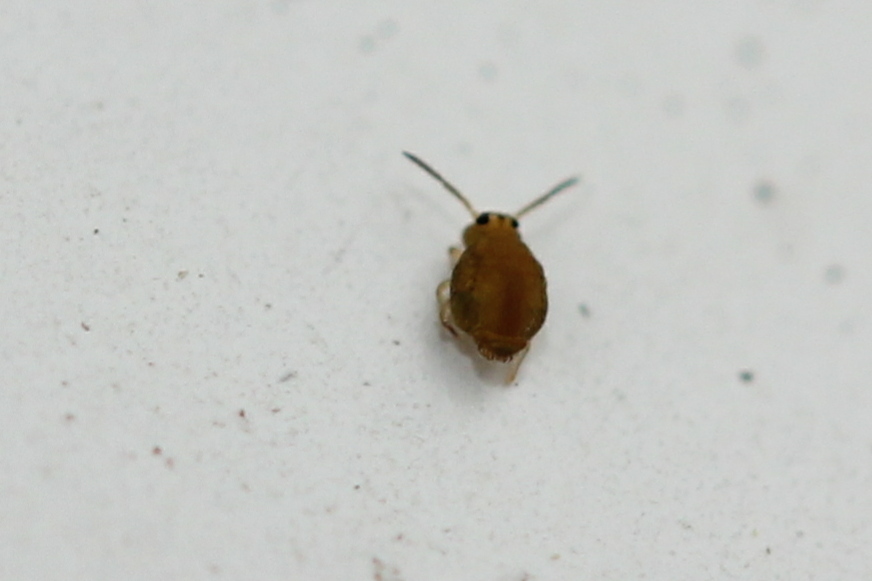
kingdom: Animalia
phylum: Arthropoda
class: Collembola
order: Symphypleona
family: Katiannidae
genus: Sminthurinus
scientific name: Sminthurinus henshawi
